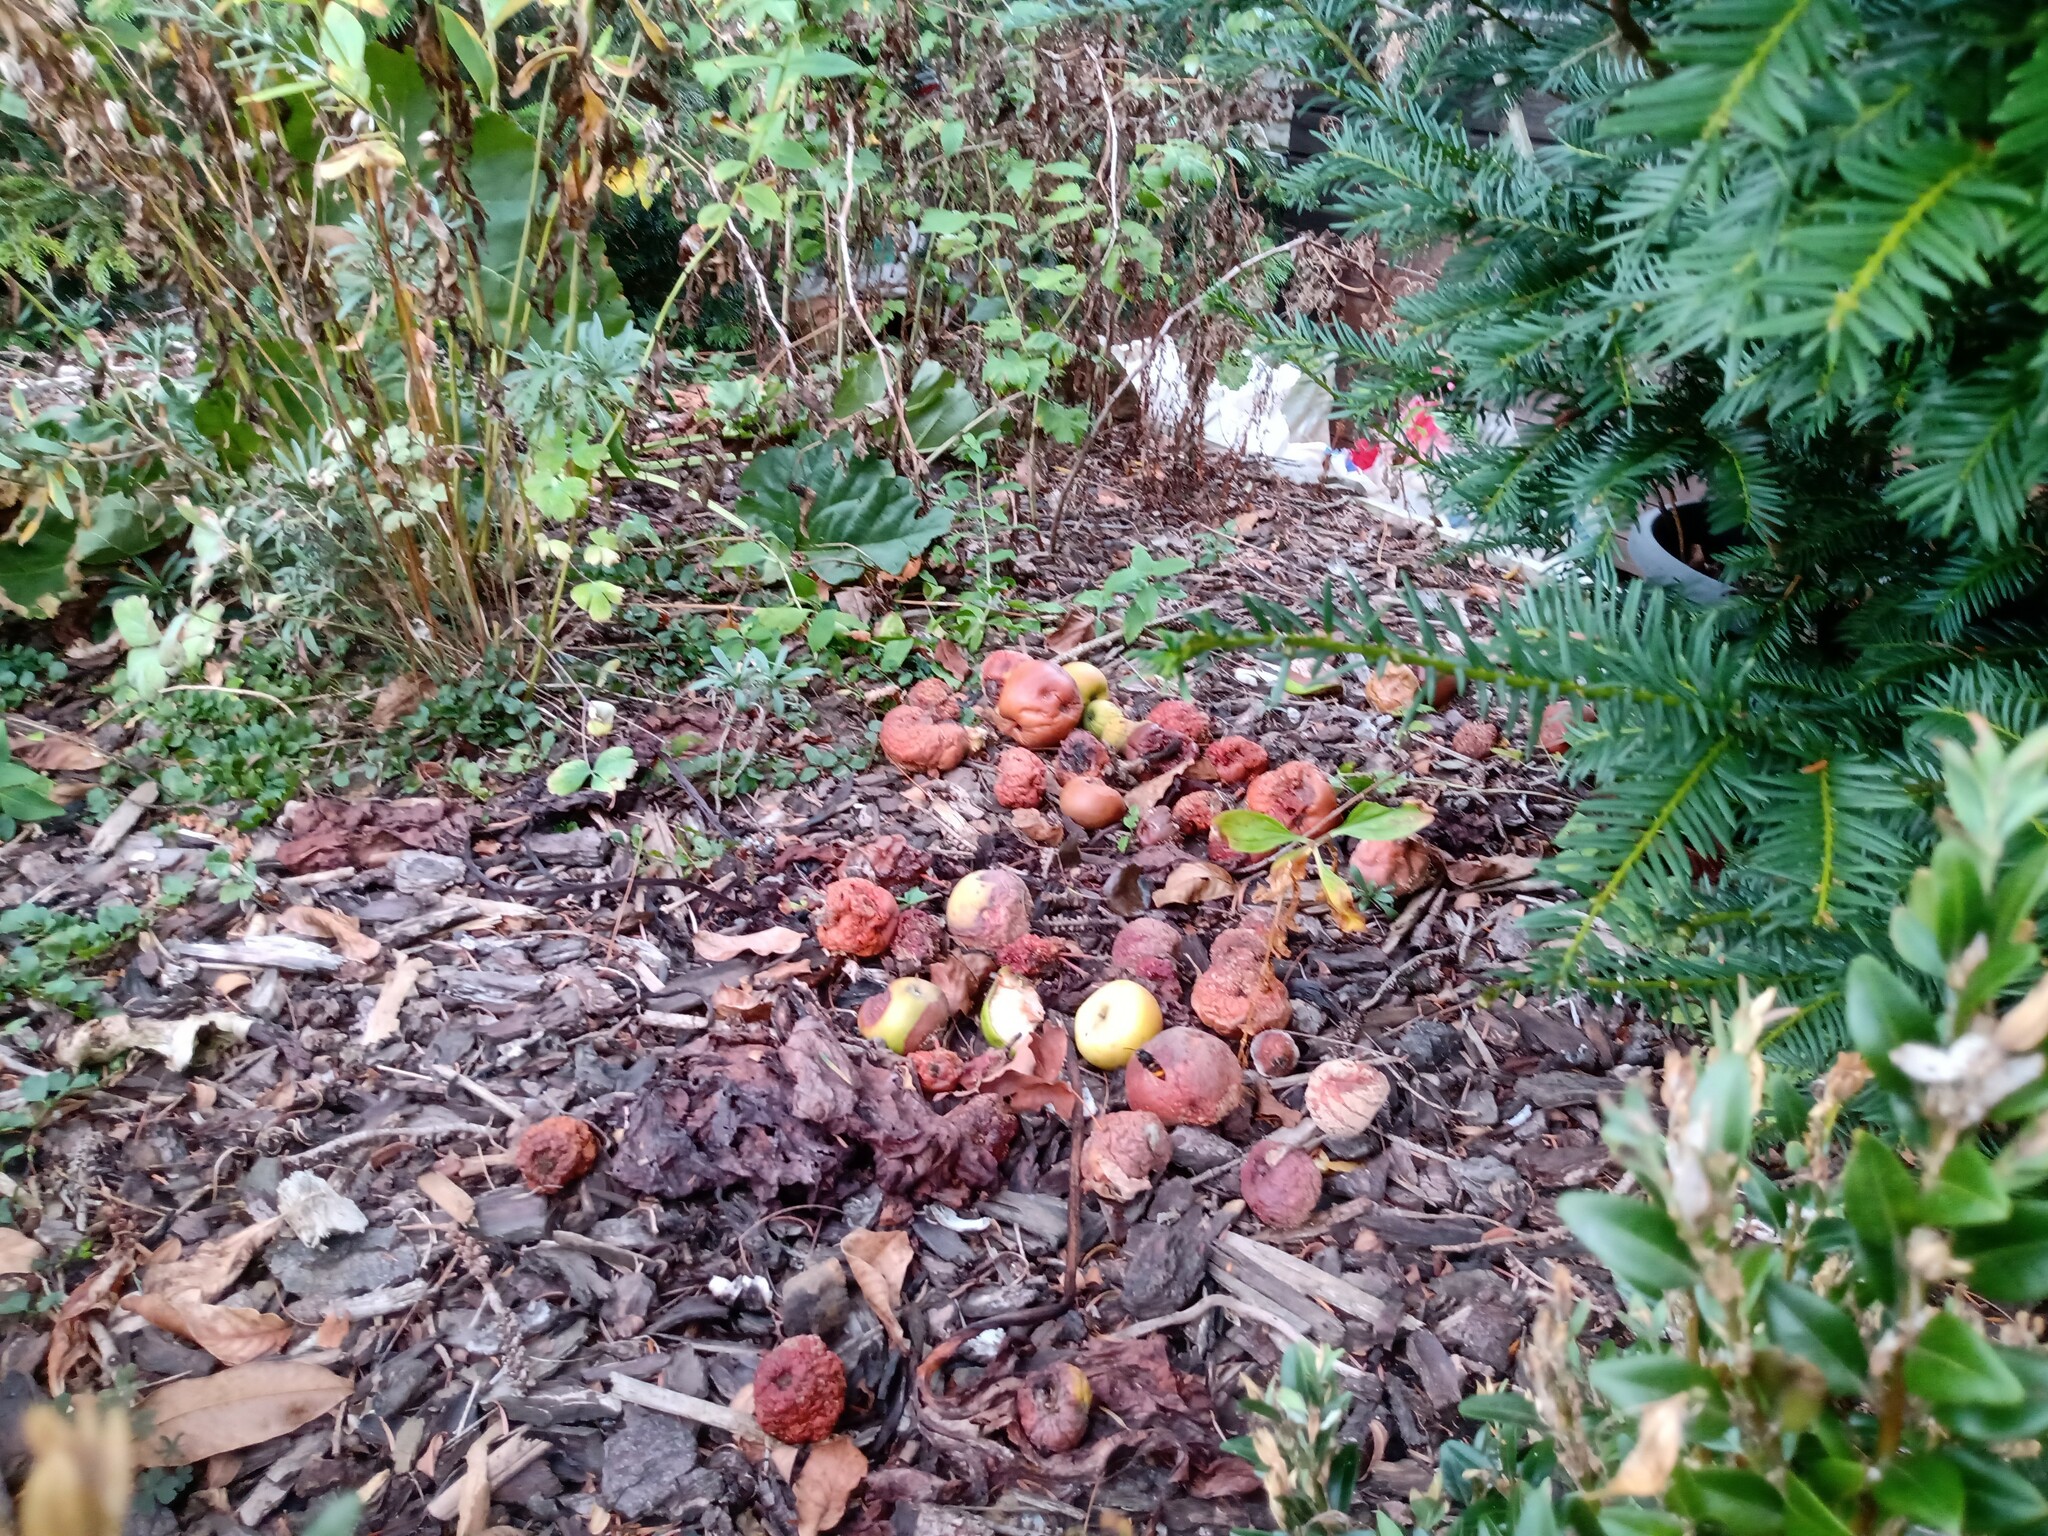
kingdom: Animalia
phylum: Arthropoda
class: Insecta
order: Hymenoptera
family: Vespidae
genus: Vespa
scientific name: Vespa velutina
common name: Asian hornet
